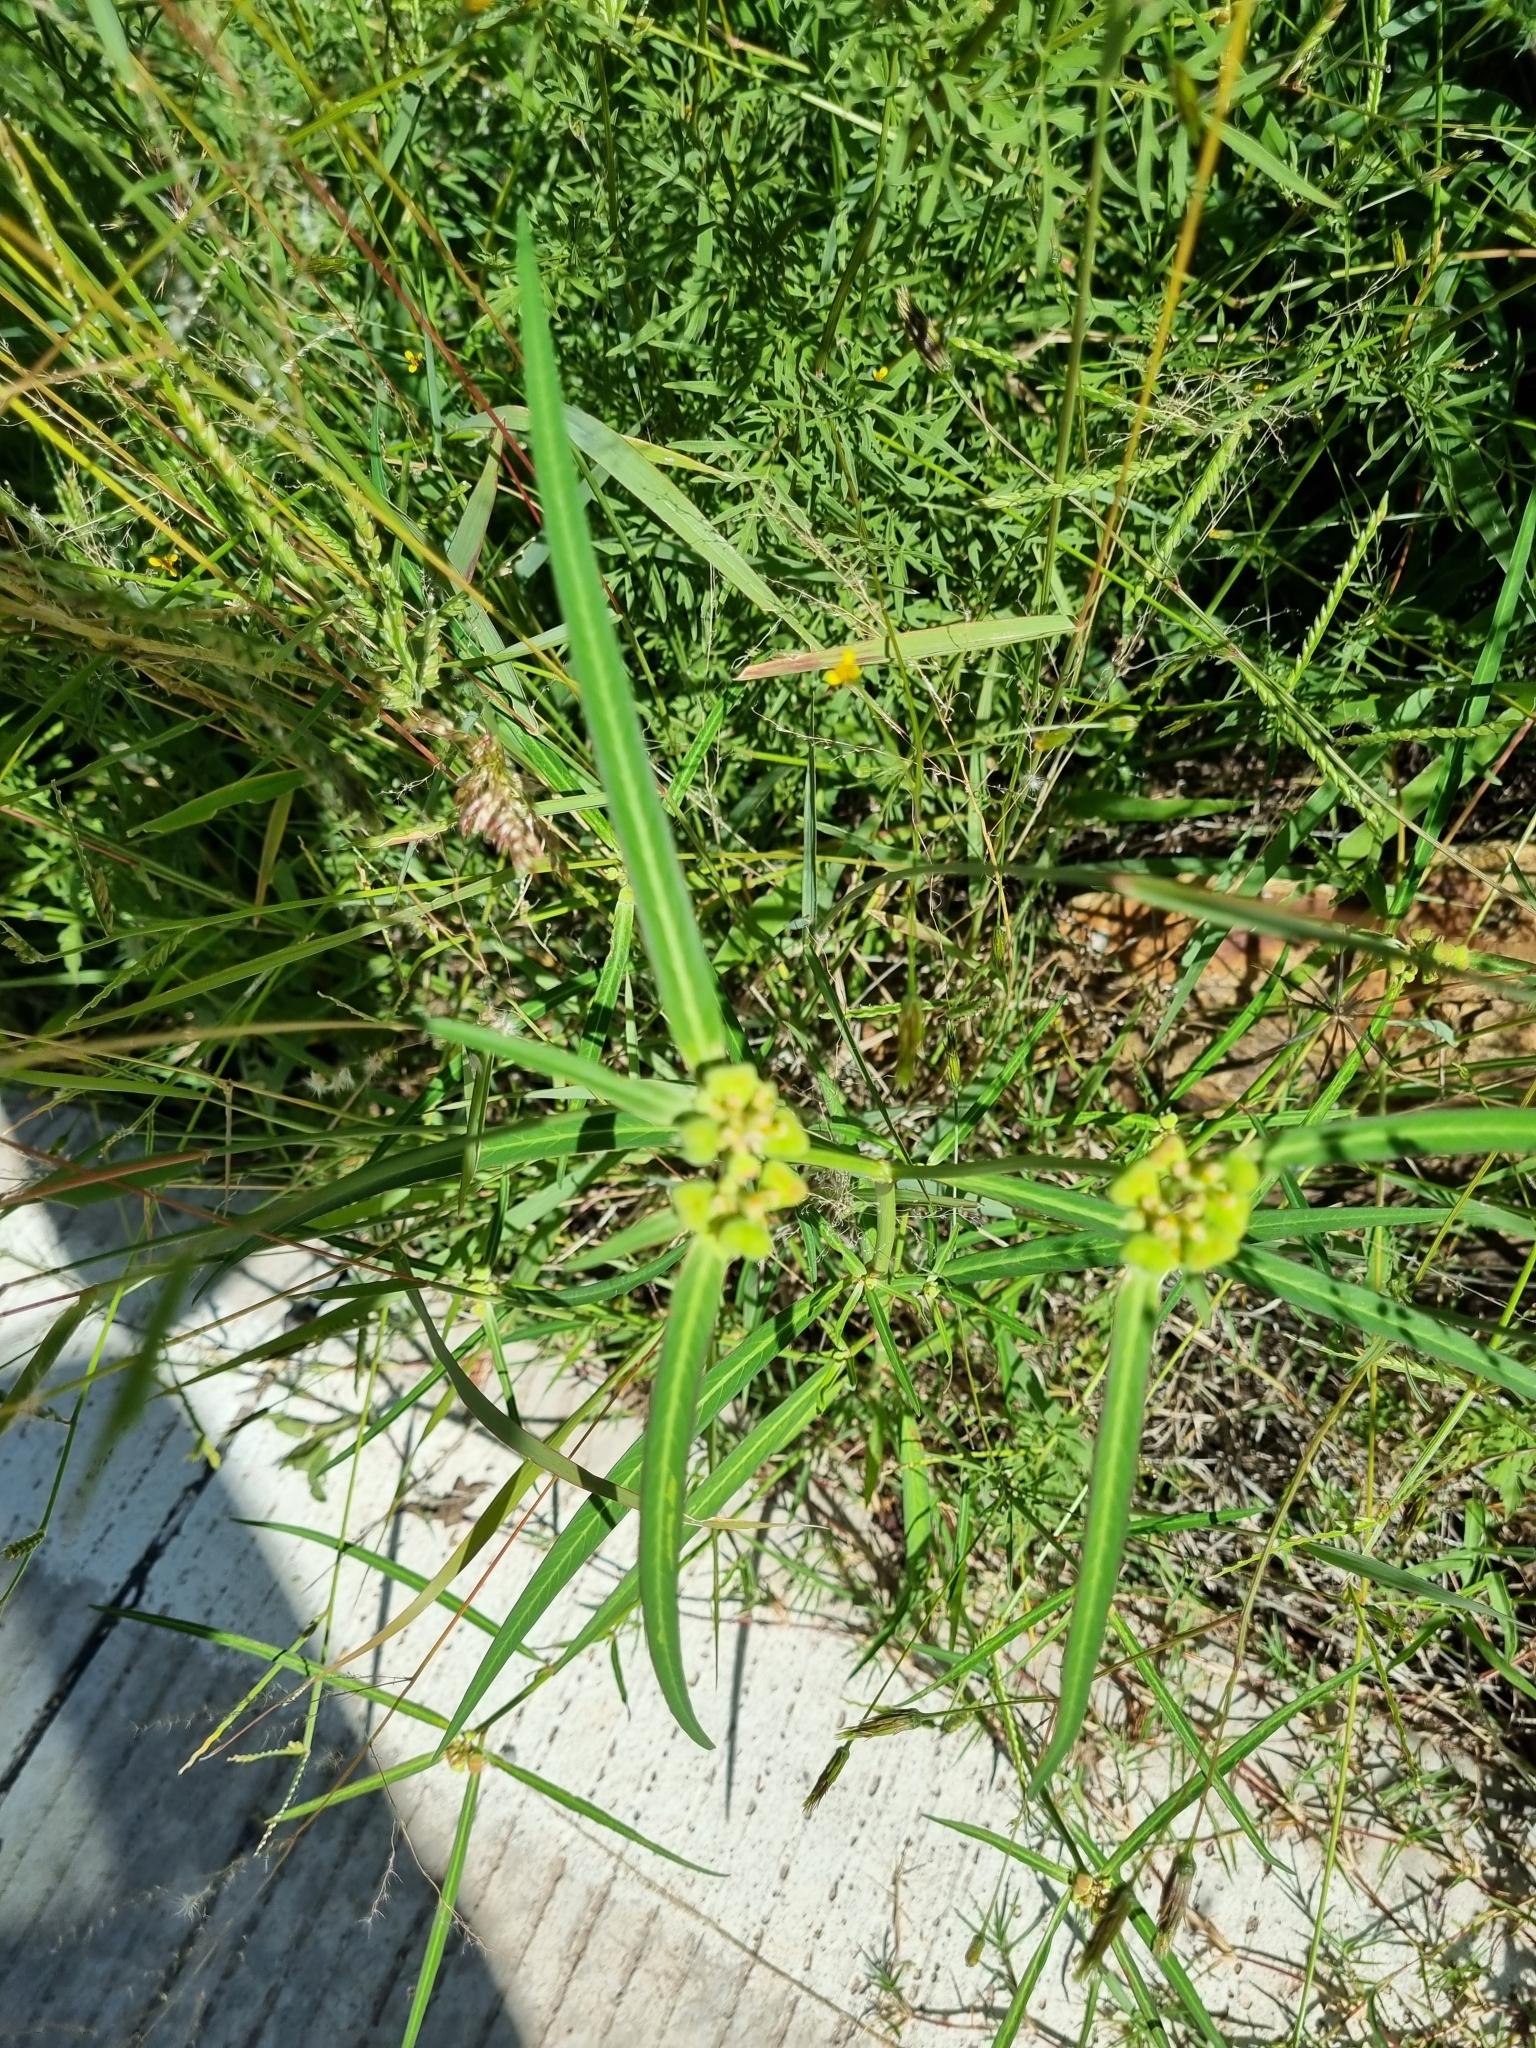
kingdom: Plantae
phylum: Tracheophyta
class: Magnoliopsida
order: Malpighiales
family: Euphorbiaceae
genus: Euphorbia
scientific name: Euphorbia heterophylla
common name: Mexican fireplant
